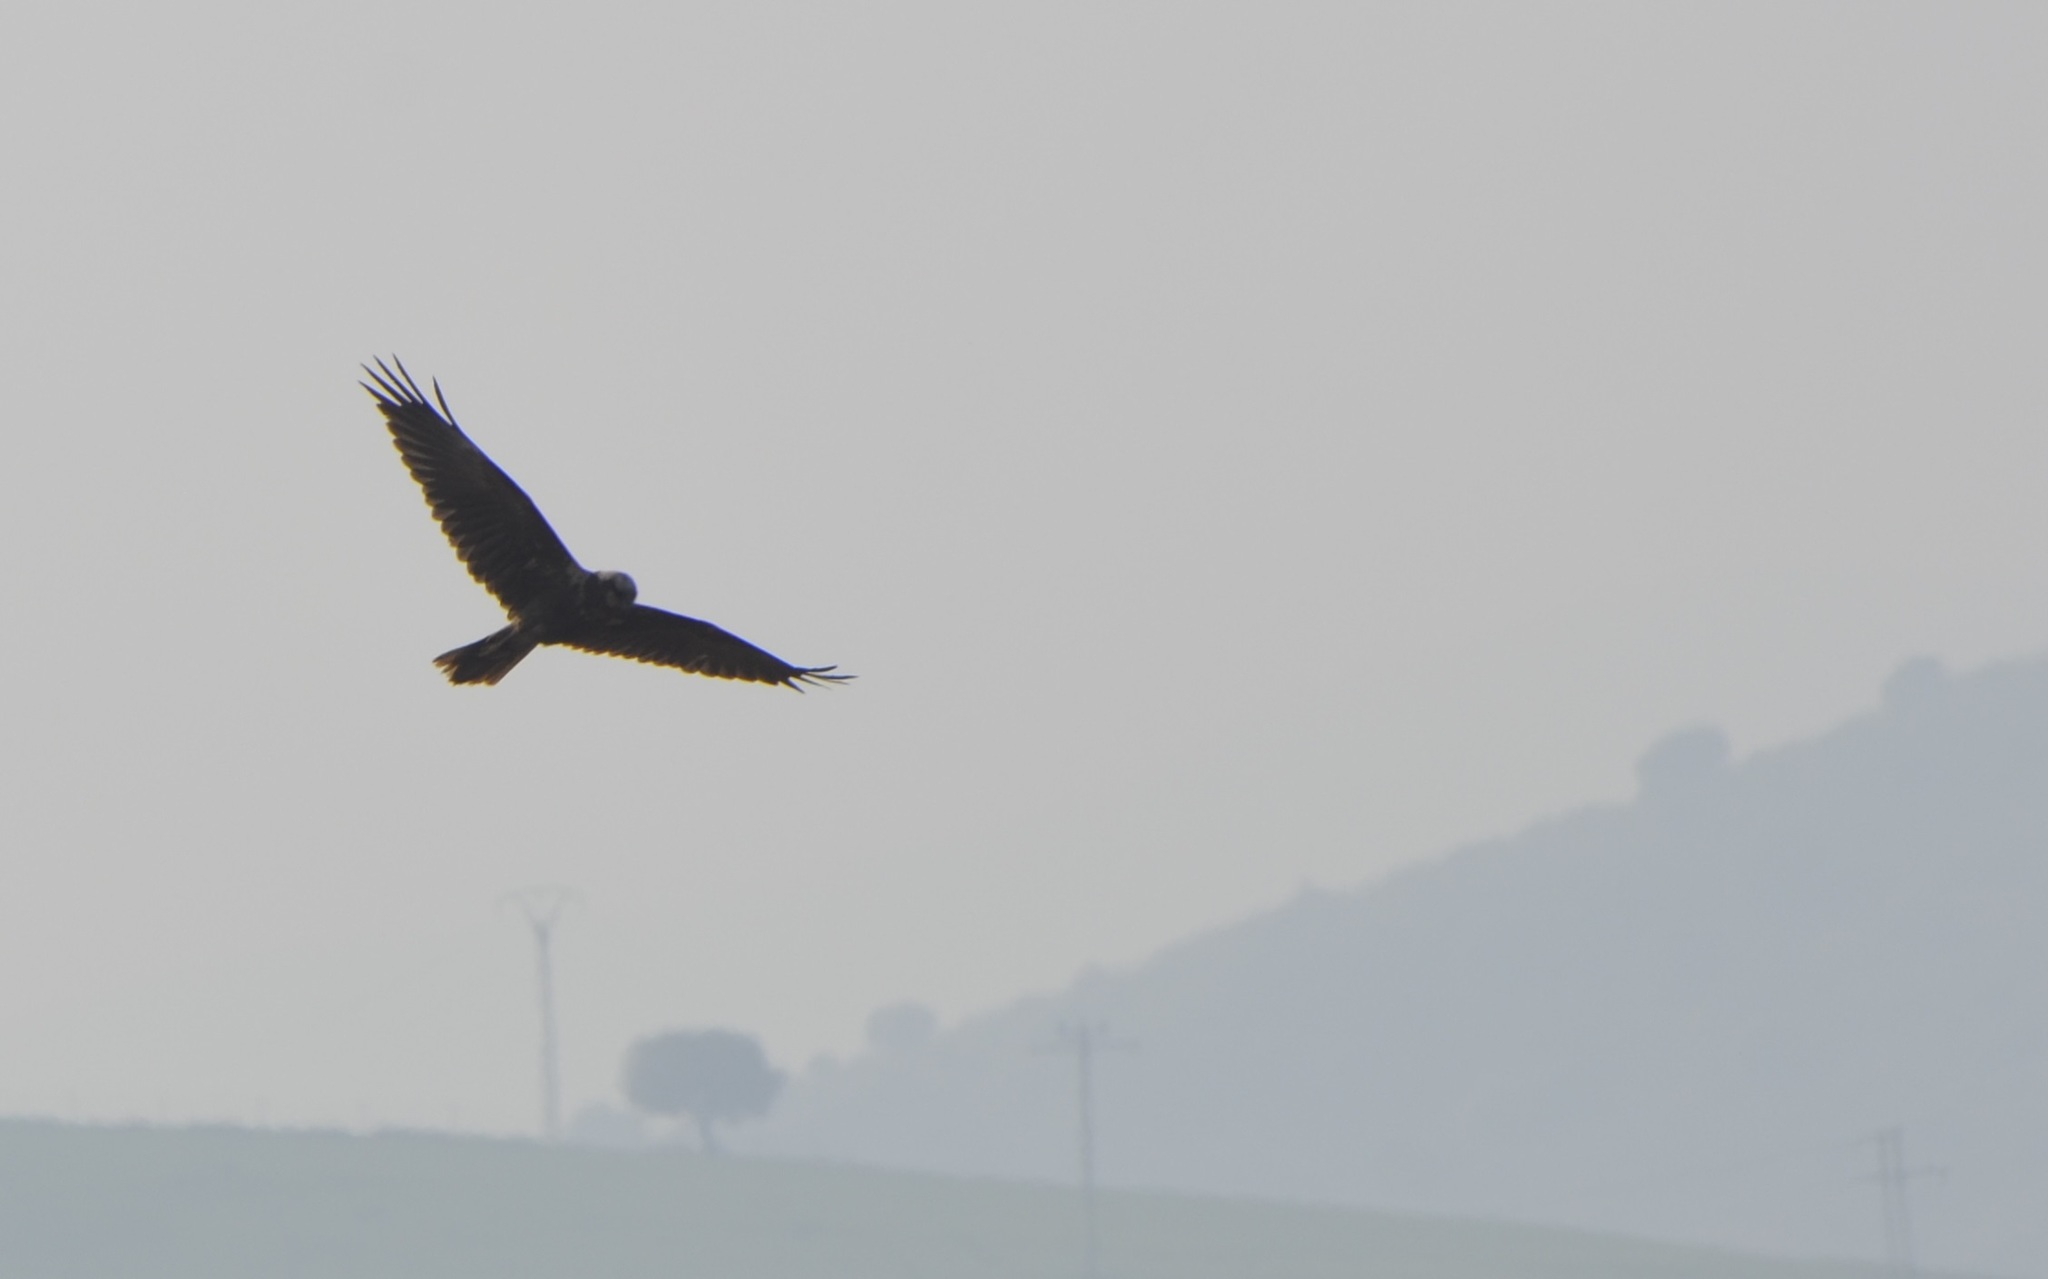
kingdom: Animalia
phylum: Chordata
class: Aves
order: Accipitriformes
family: Accipitridae
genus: Circus
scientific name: Circus aeruginosus
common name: Western marsh harrier
